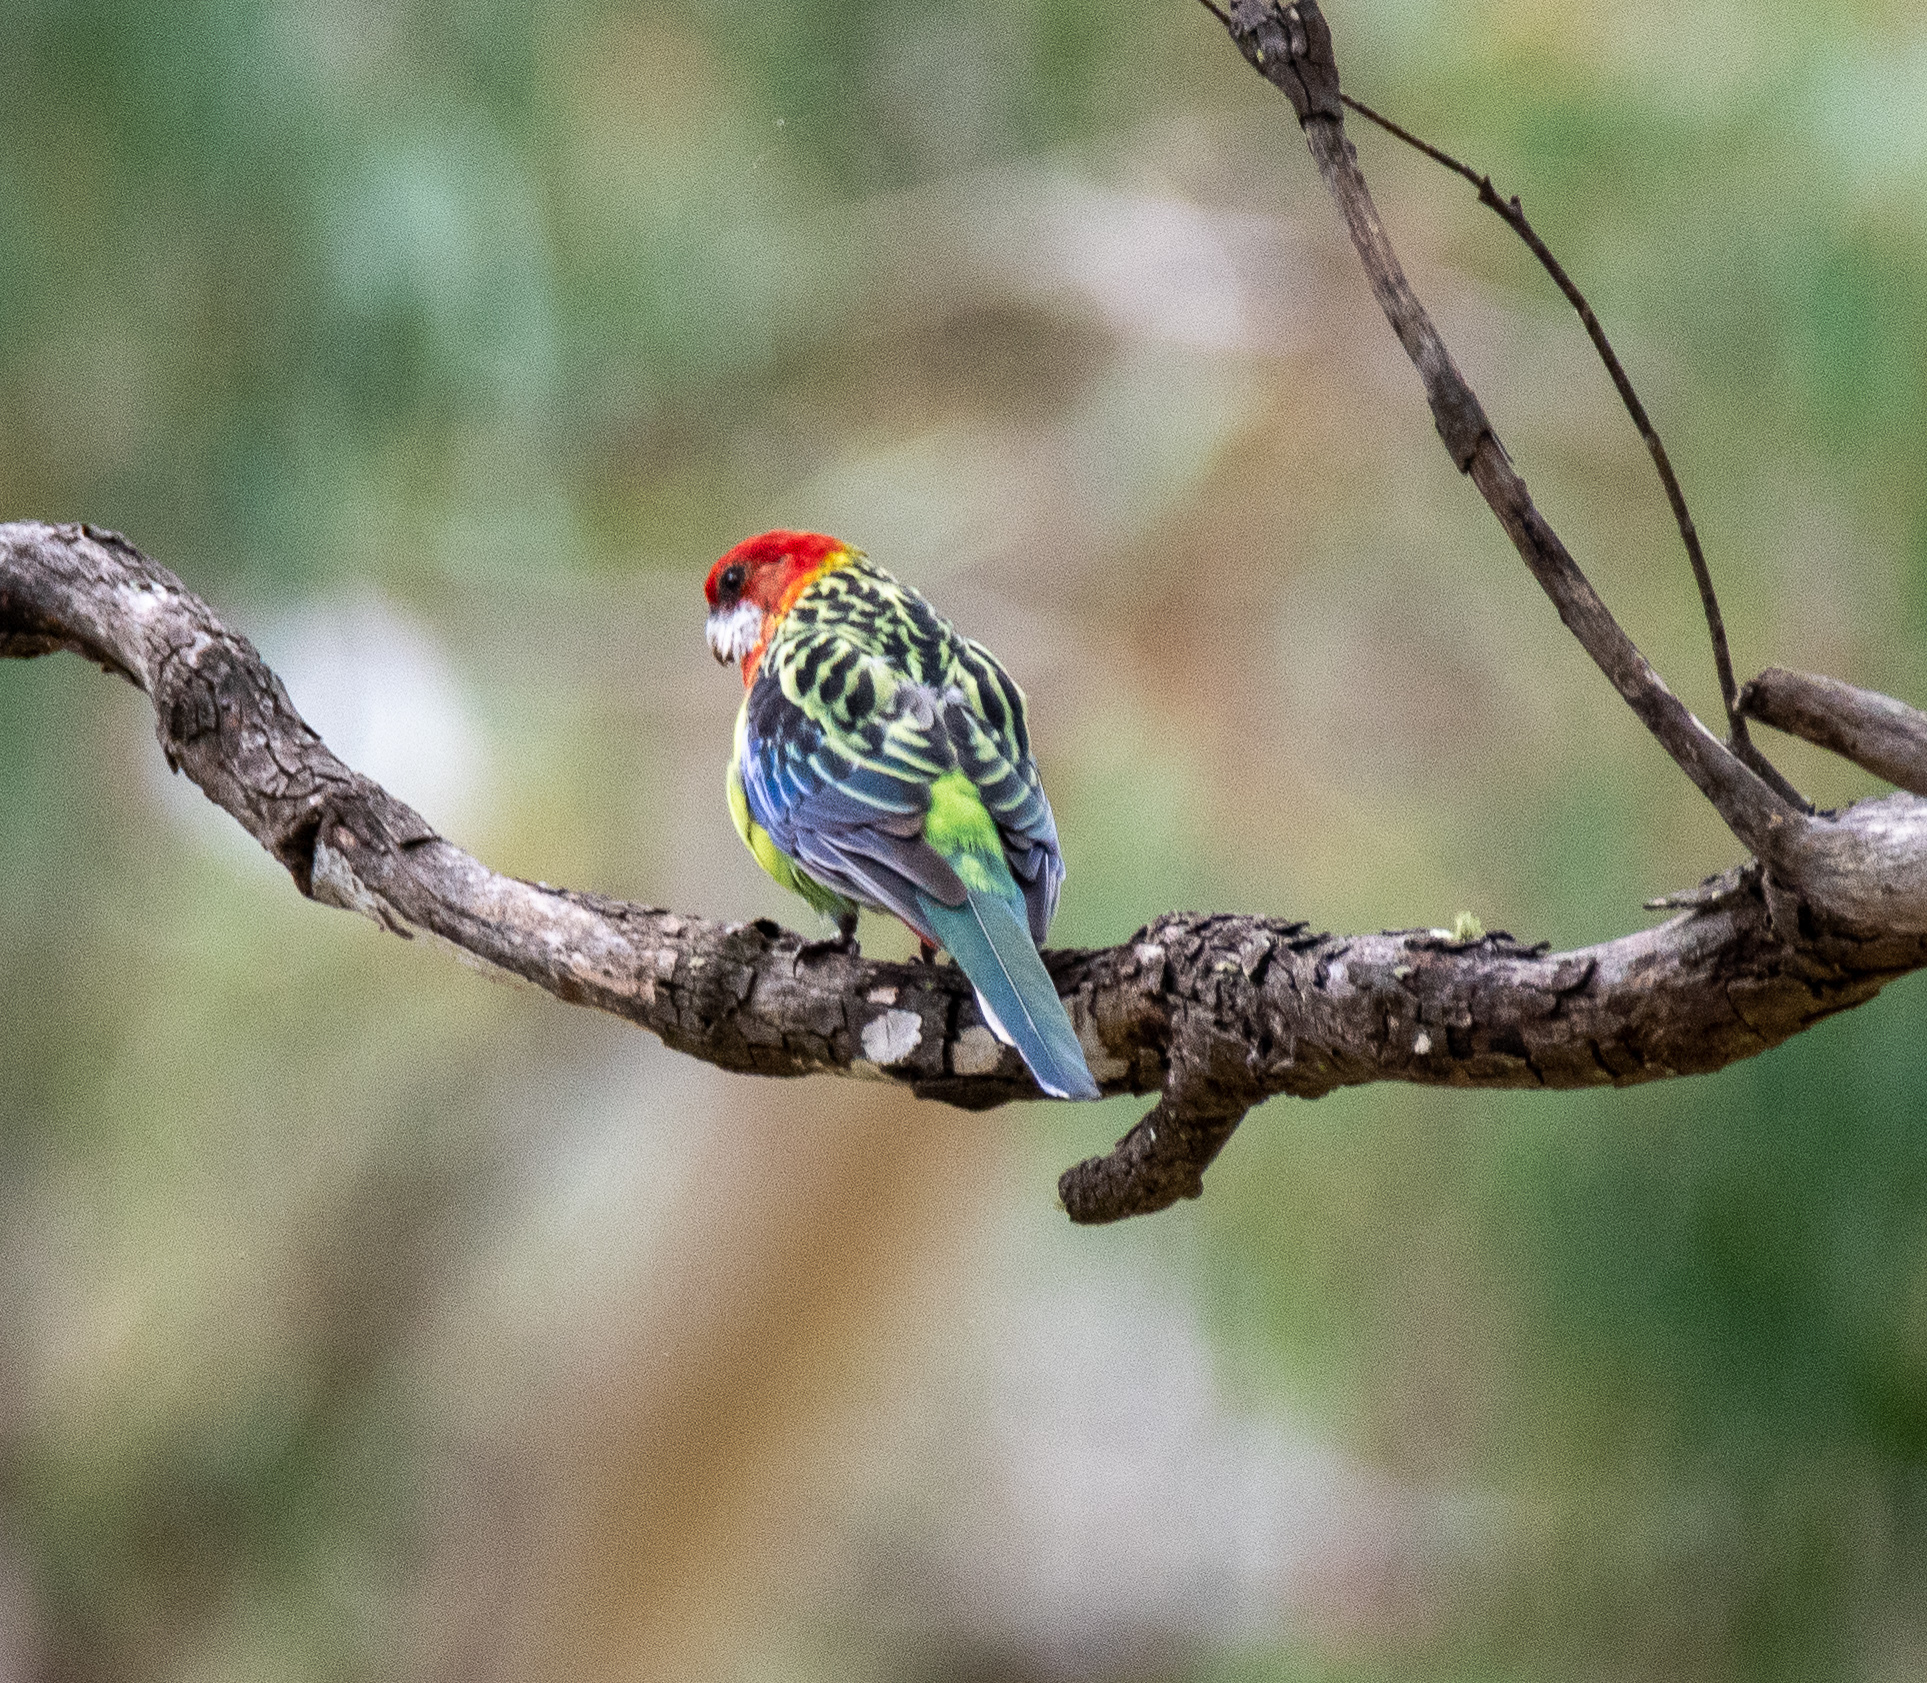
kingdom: Animalia
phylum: Chordata
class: Aves
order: Psittaciformes
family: Psittacidae
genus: Platycercus
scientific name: Platycercus eximius
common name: Eastern rosella
